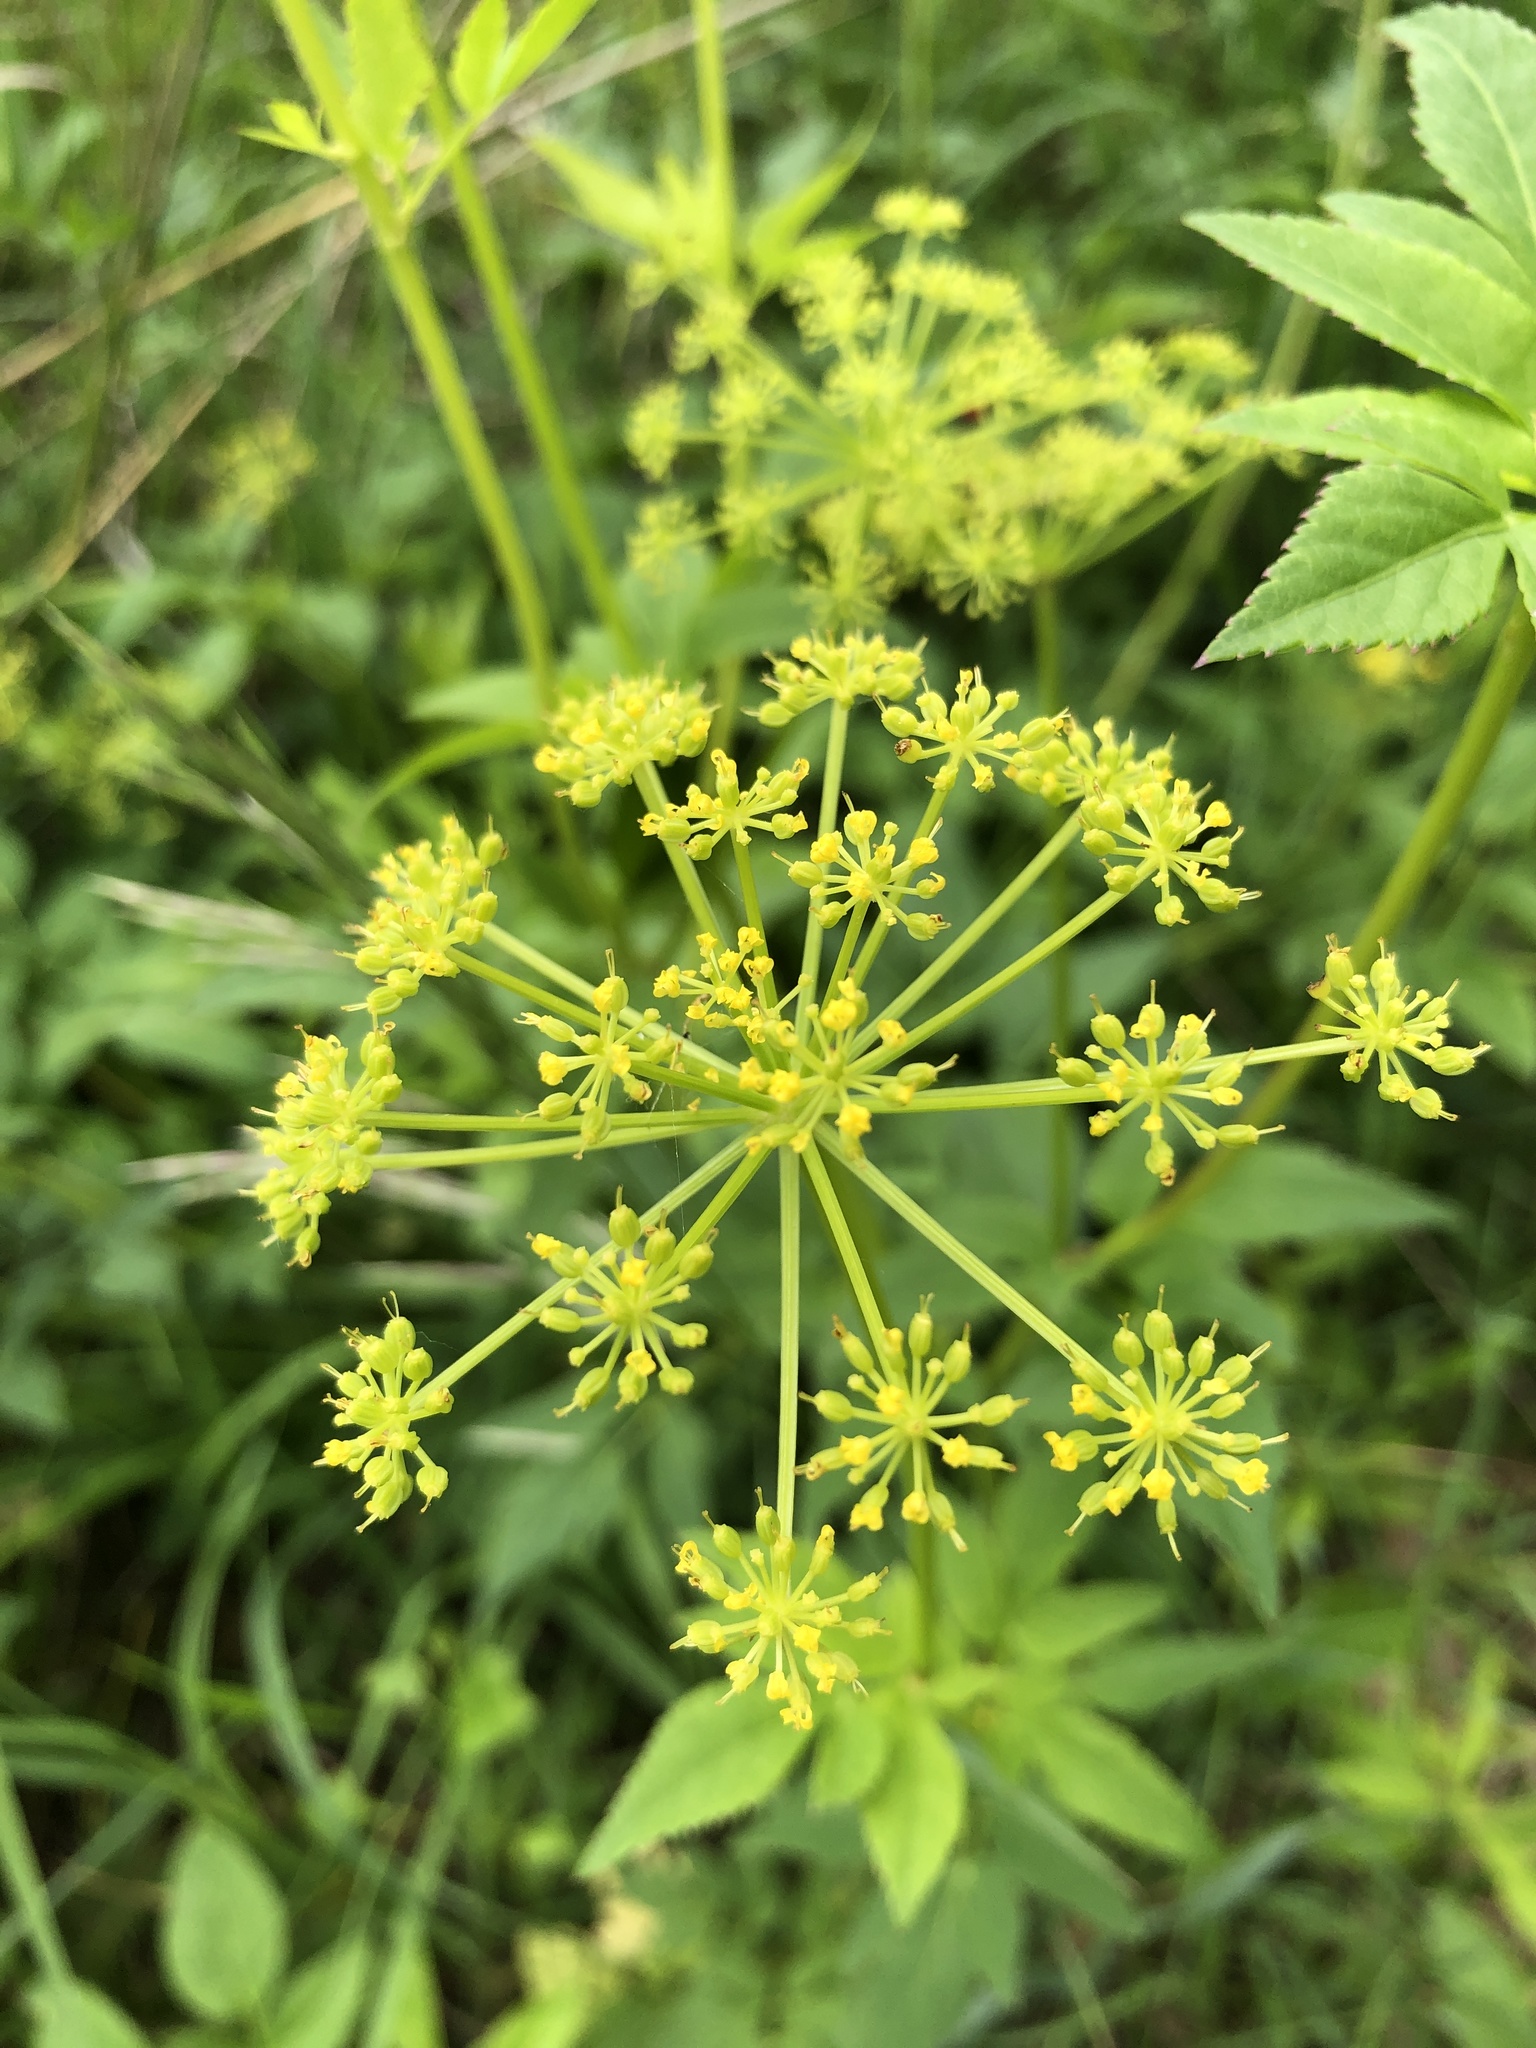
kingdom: Plantae
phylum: Tracheophyta
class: Magnoliopsida
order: Apiales
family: Apiaceae
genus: Zizia
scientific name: Zizia aurea
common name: Golden alexanders
